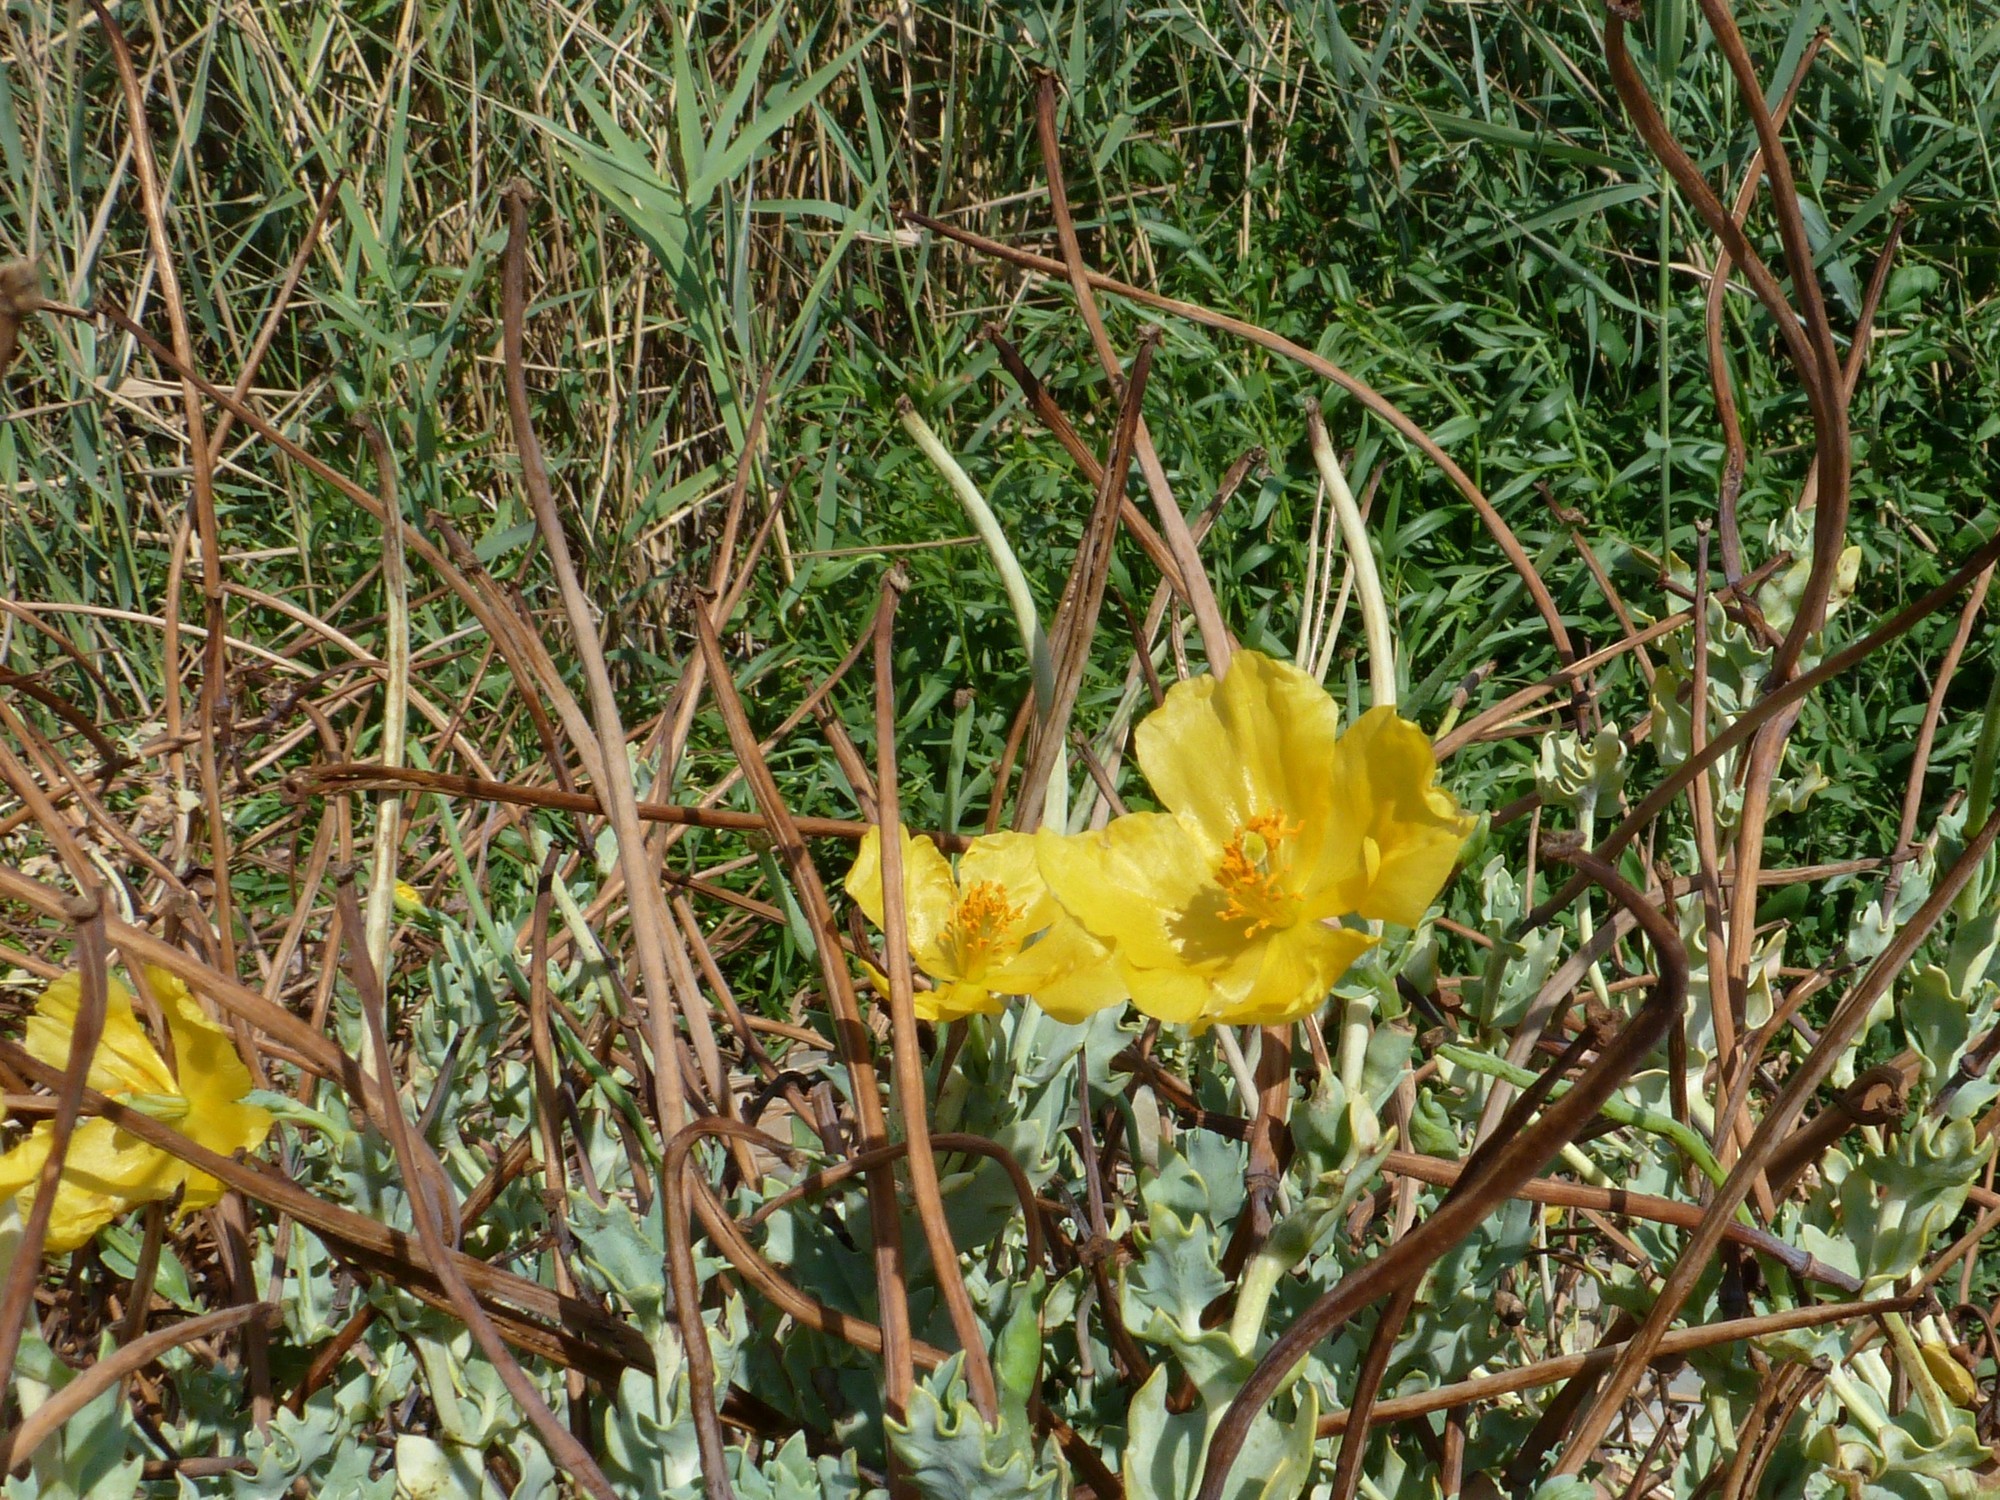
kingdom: Plantae
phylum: Tracheophyta
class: Magnoliopsida
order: Ranunculales
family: Papaveraceae
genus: Glaucium
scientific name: Glaucium flavum
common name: Yellow horned-poppy
